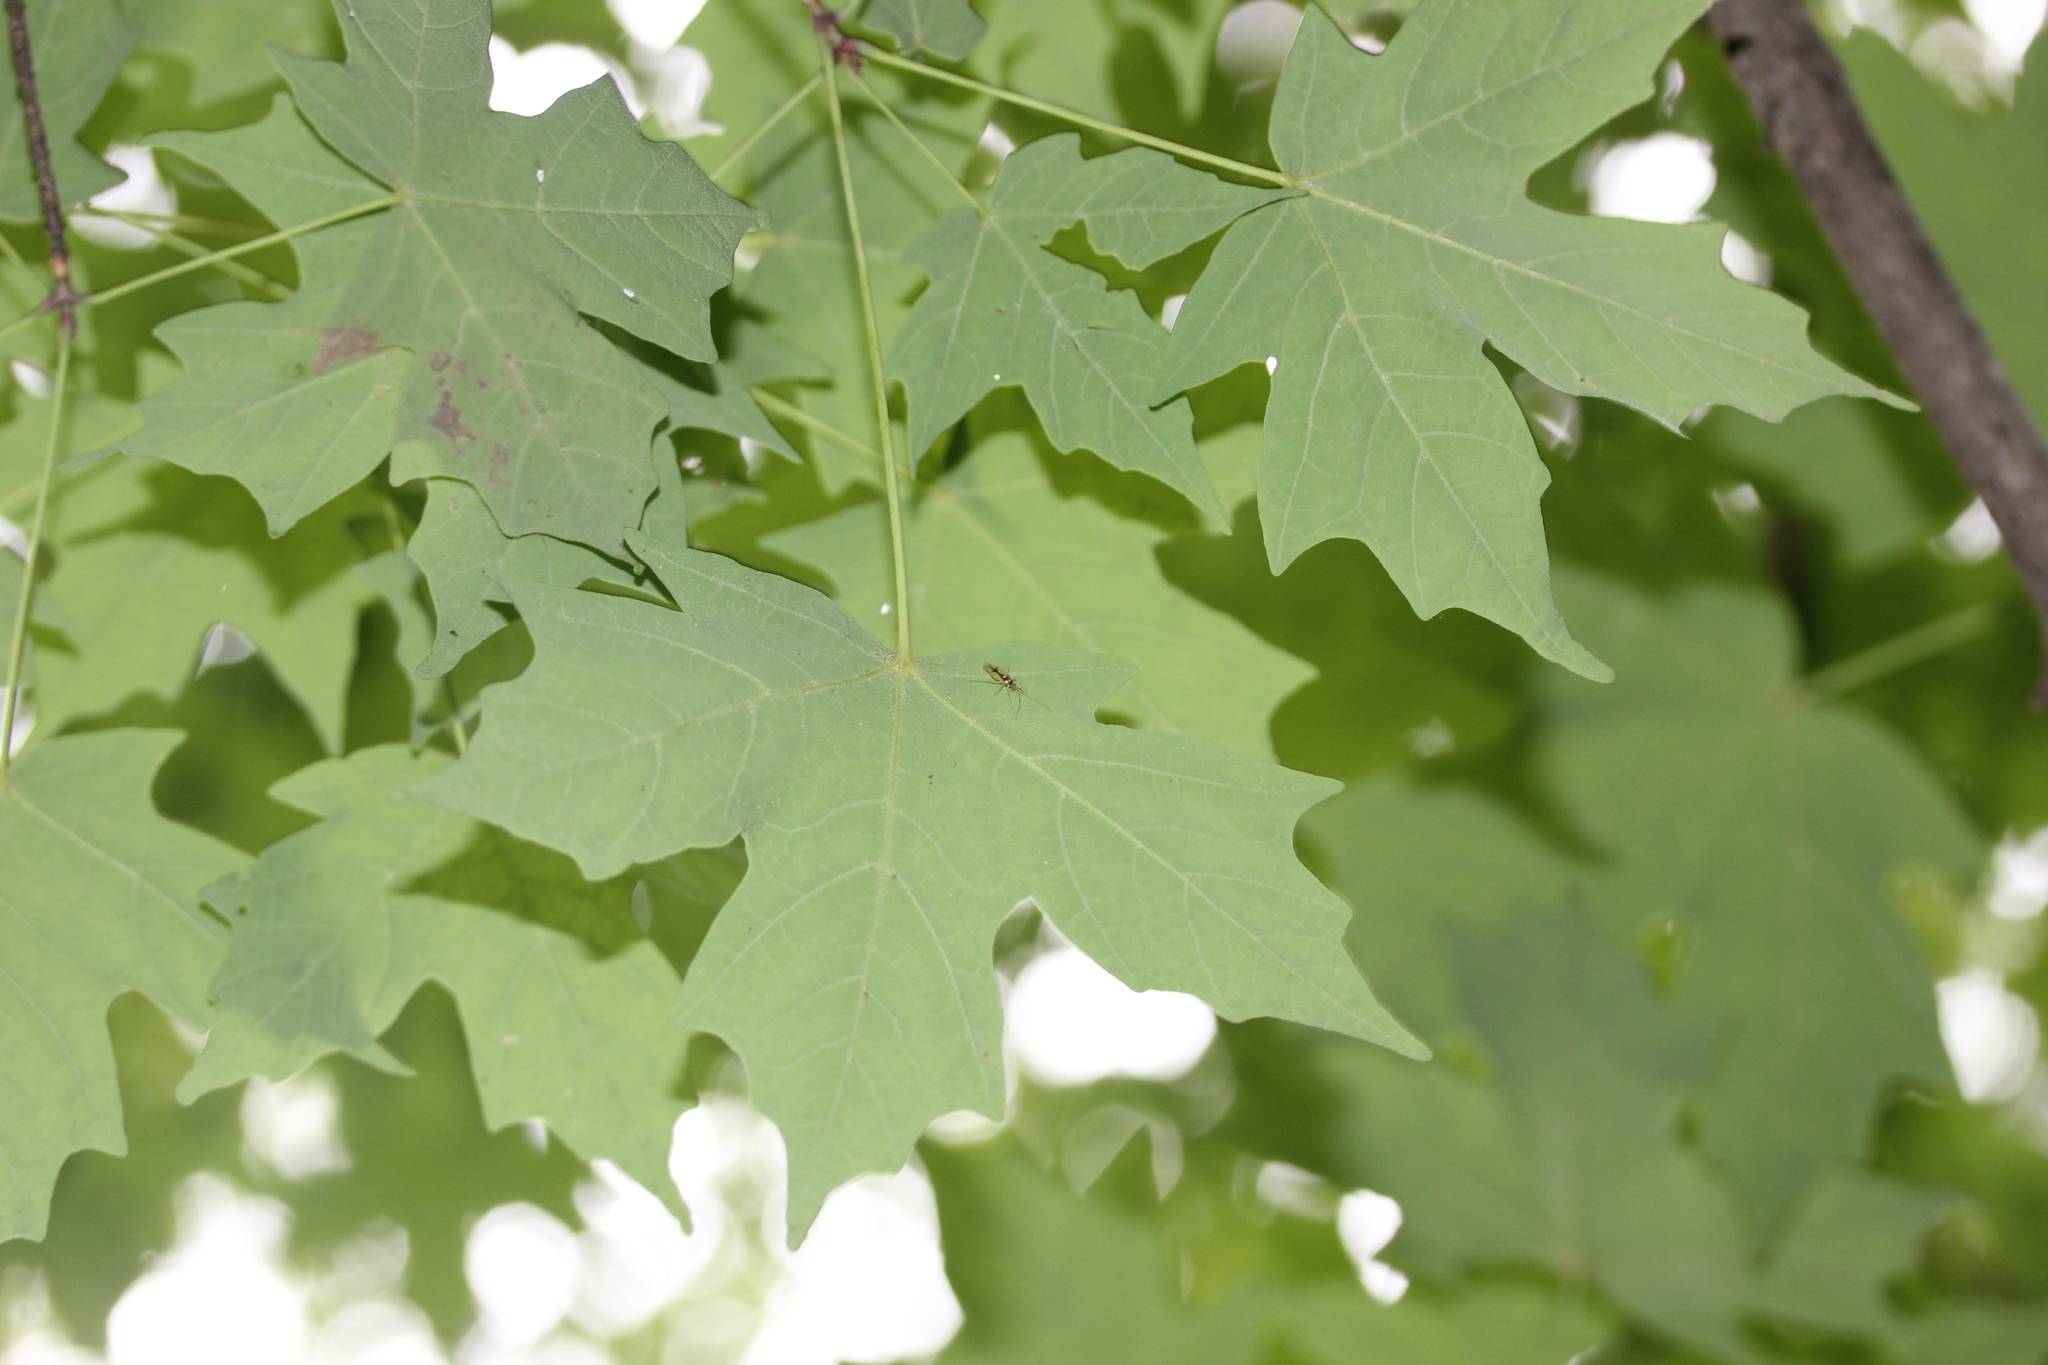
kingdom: Plantae
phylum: Tracheophyta
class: Magnoliopsida
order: Sapindales
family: Sapindaceae
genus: Acer
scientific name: Acer saccharum
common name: Sugar maple
